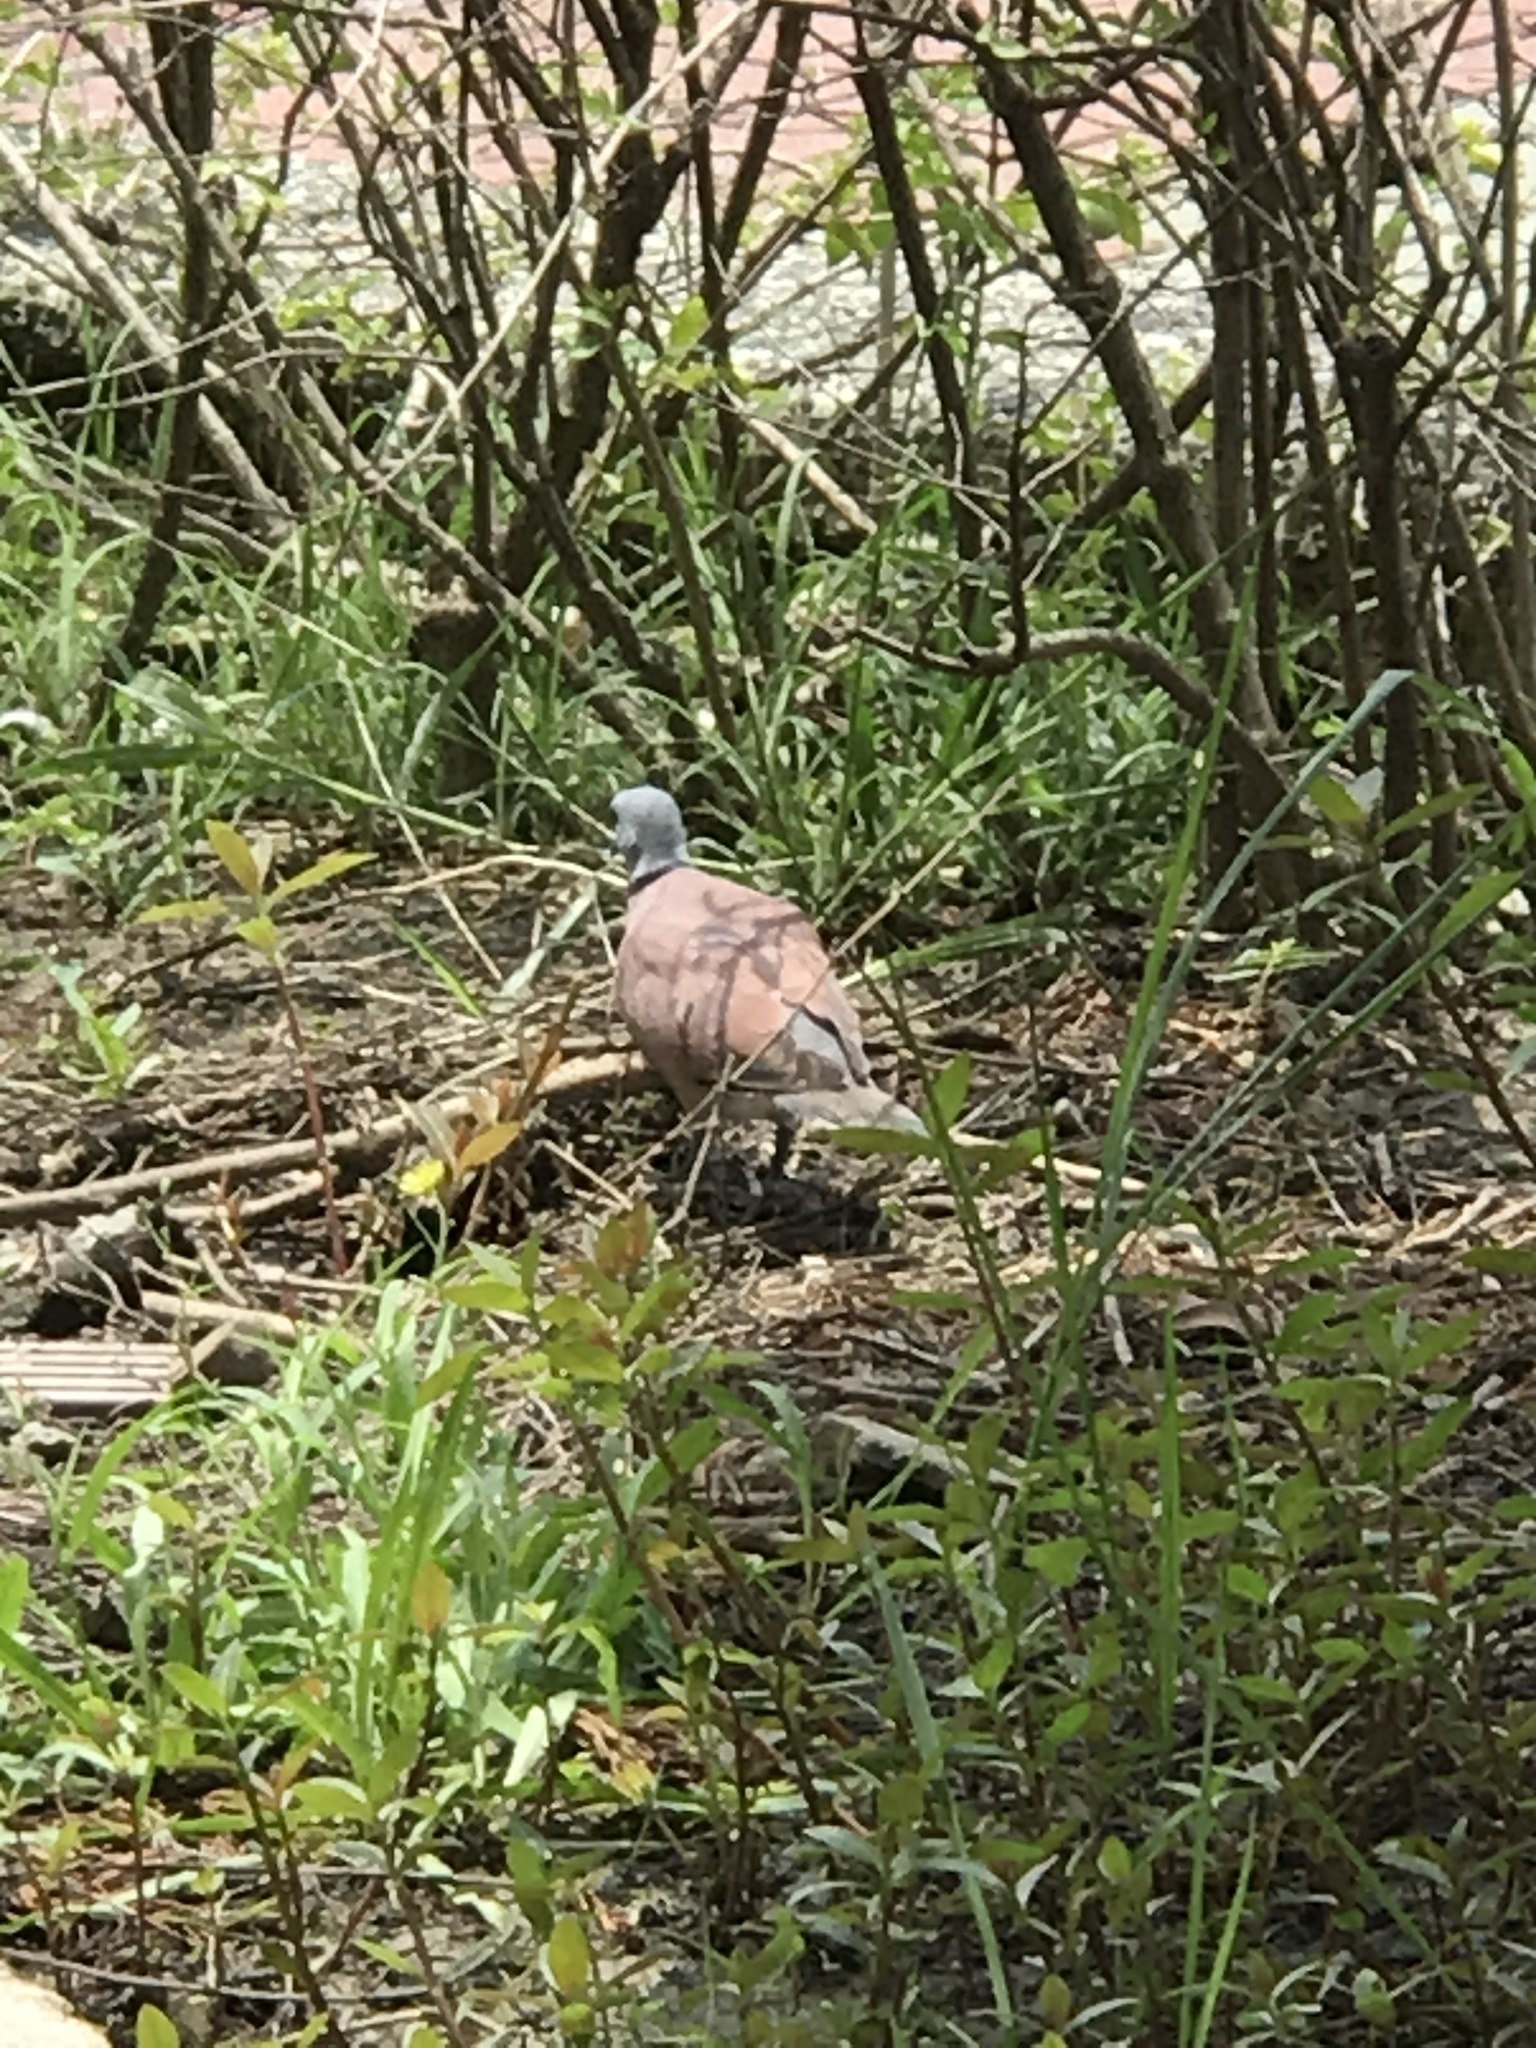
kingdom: Animalia
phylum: Chordata
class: Aves
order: Columbiformes
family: Columbidae
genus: Streptopelia
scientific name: Streptopelia tranquebarica
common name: Red turtle dove
